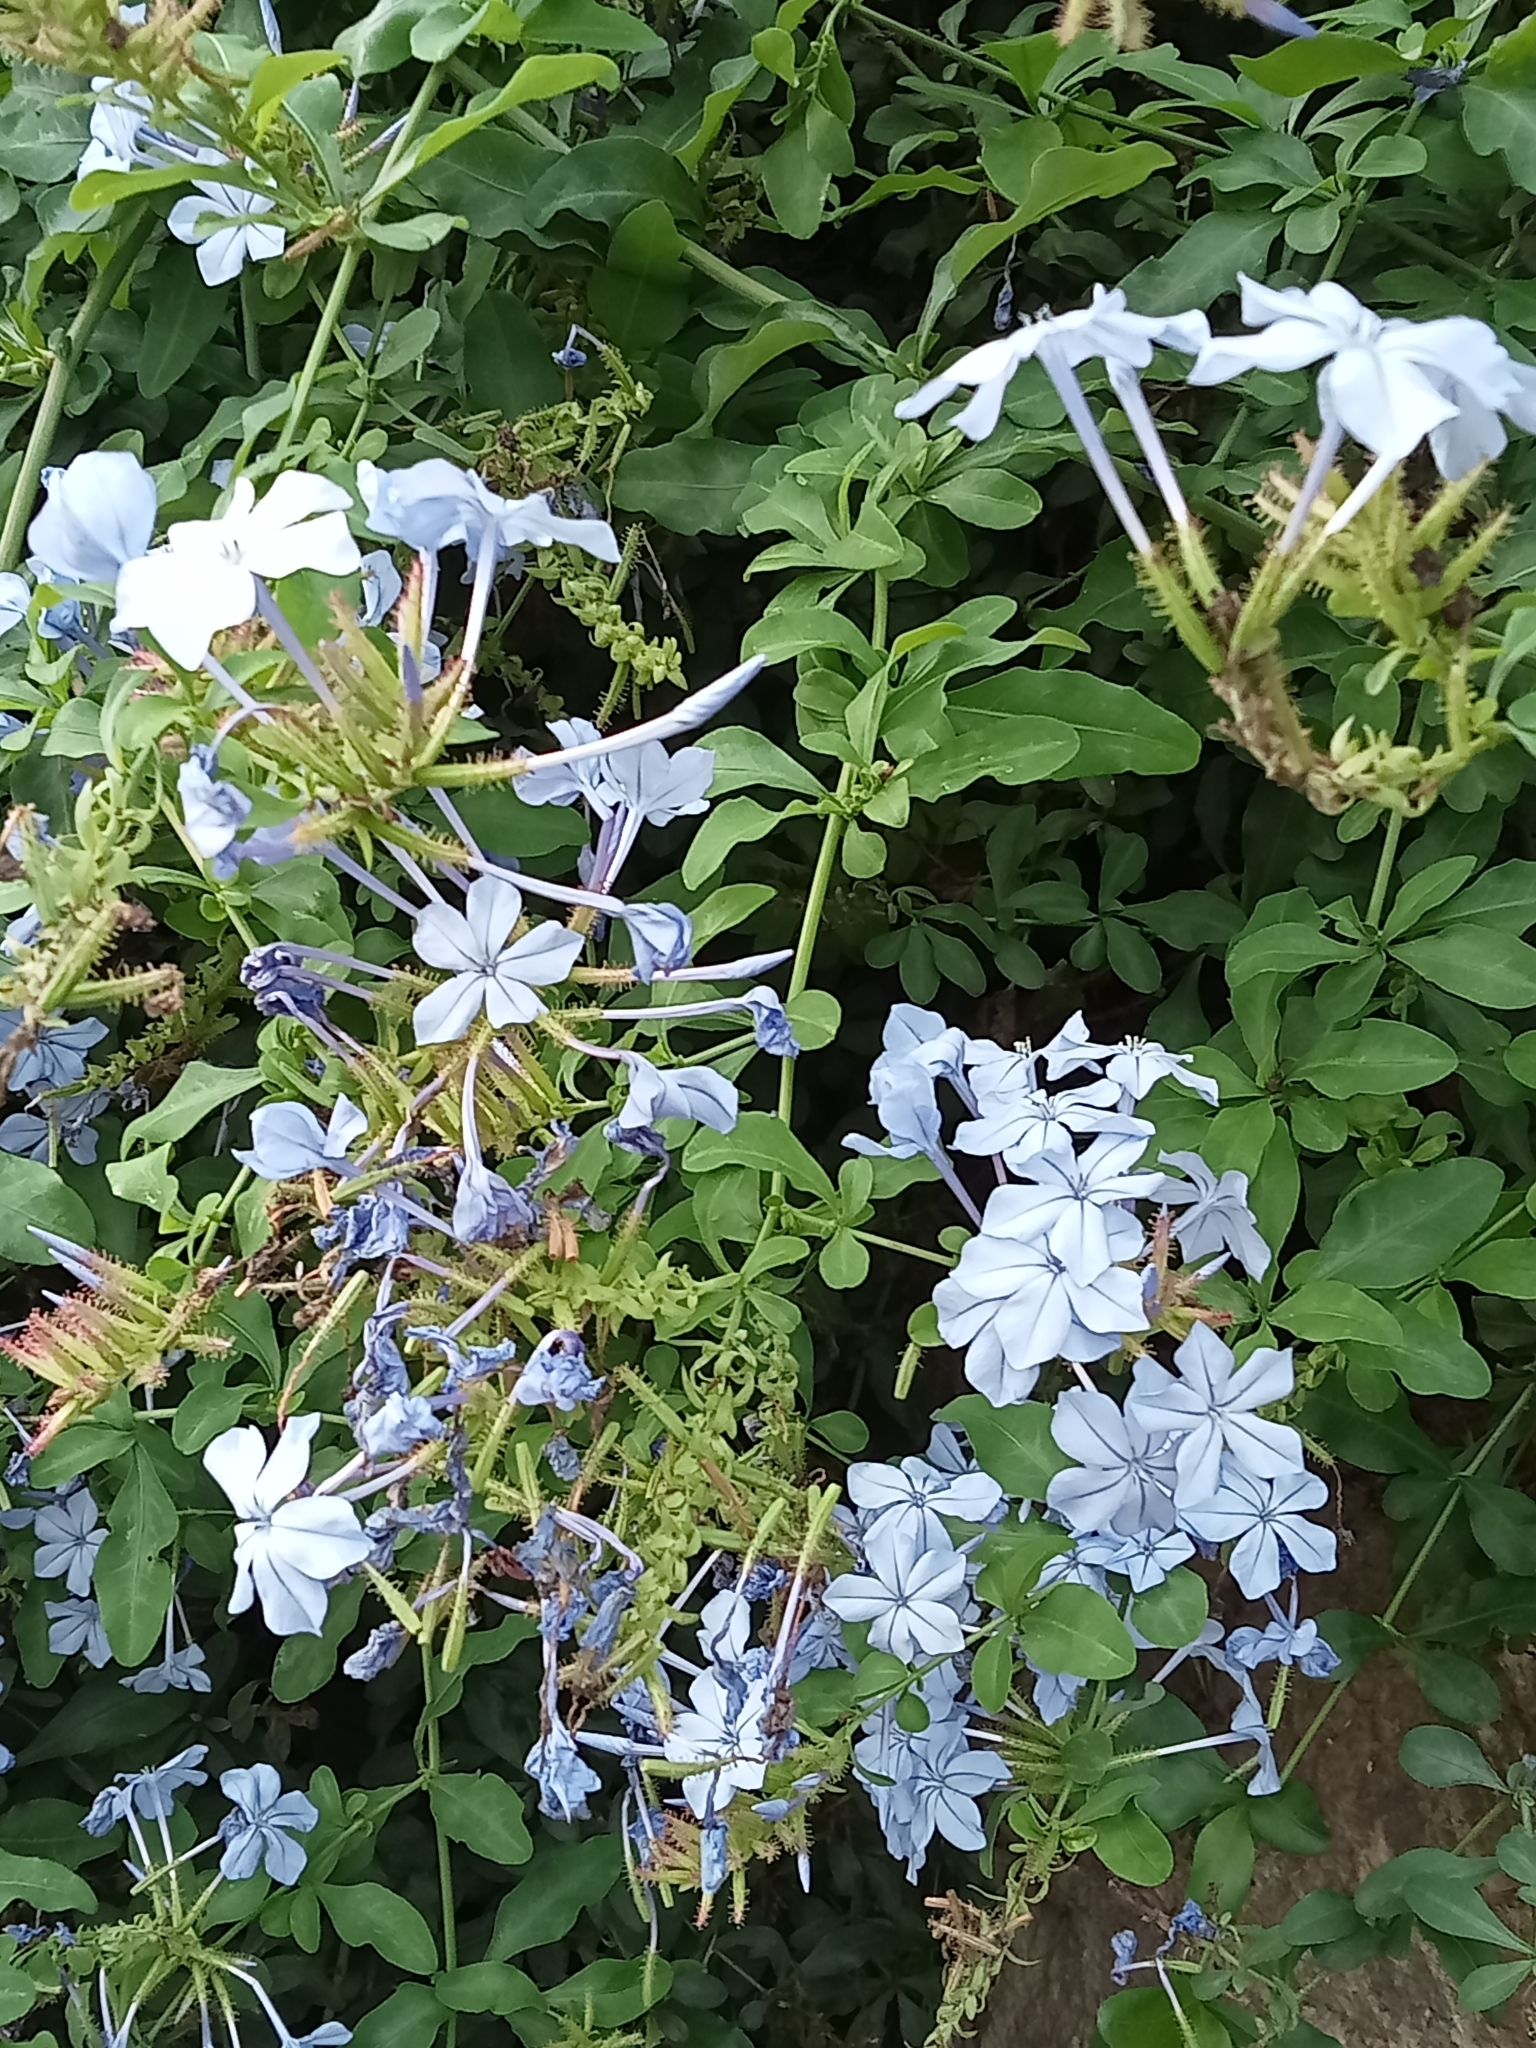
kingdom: Plantae
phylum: Tracheophyta
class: Magnoliopsida
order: Caryophyllales
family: Plumbaginaceae
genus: Plumbago
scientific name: Plumbago auriculata
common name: Cape leadwort
